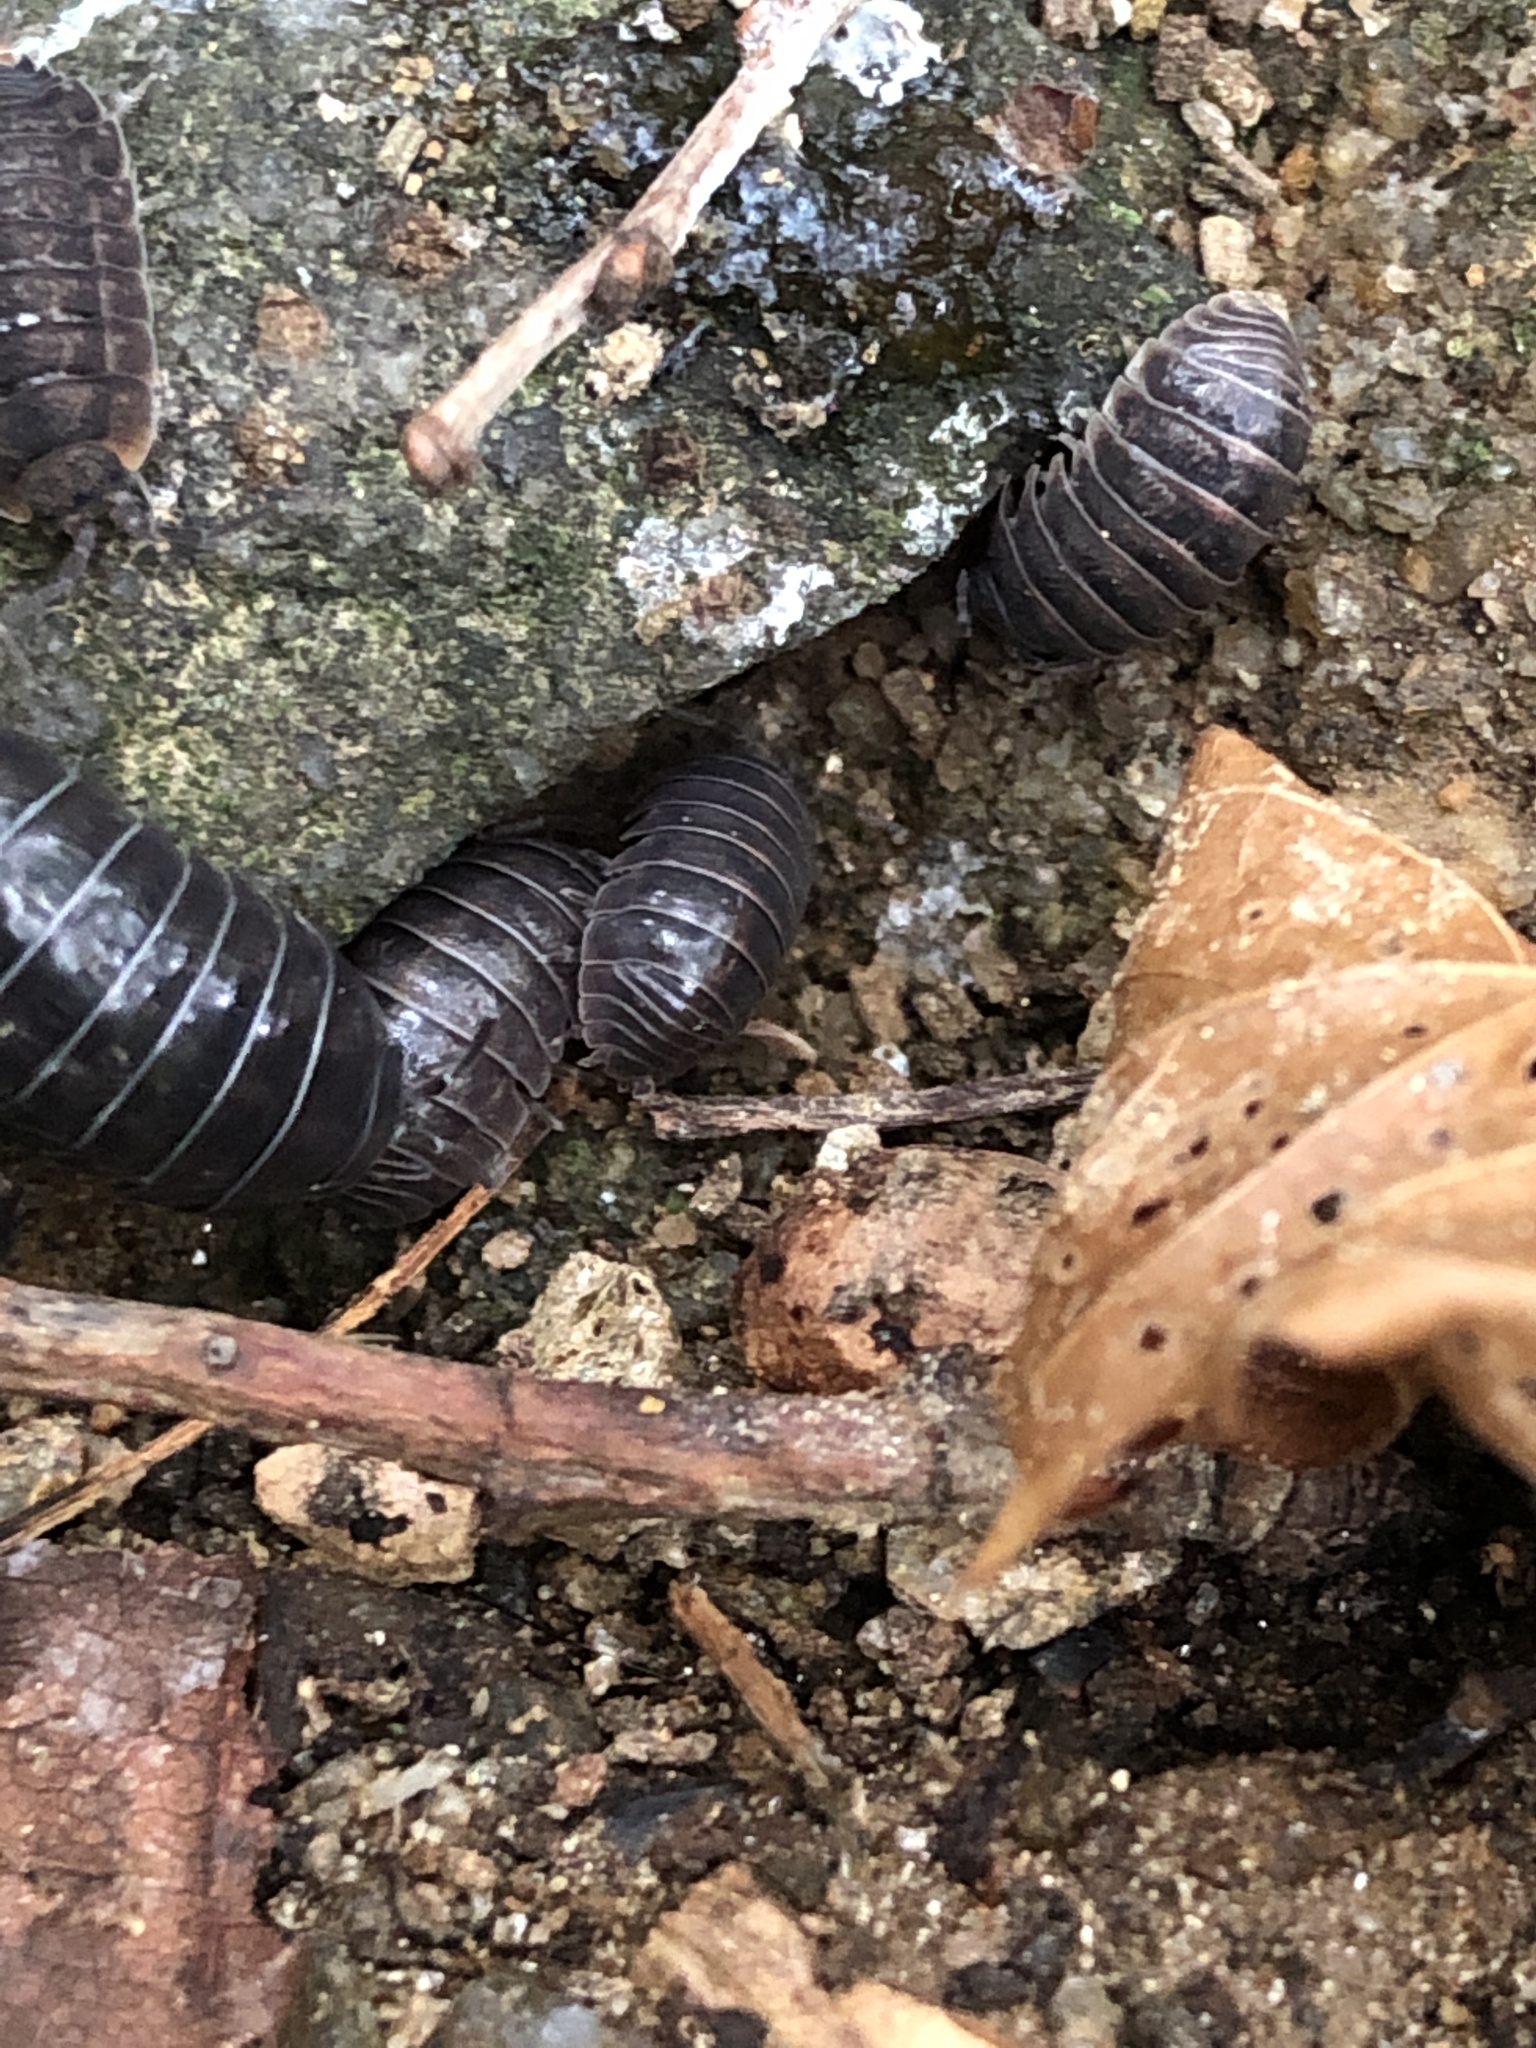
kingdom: Animalia
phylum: Arthropoda
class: Malacostraca
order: Isopoda
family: Armadillidiidae
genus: Armadillidium
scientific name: Armadillidium vulgare
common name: Common pill woodlouse
